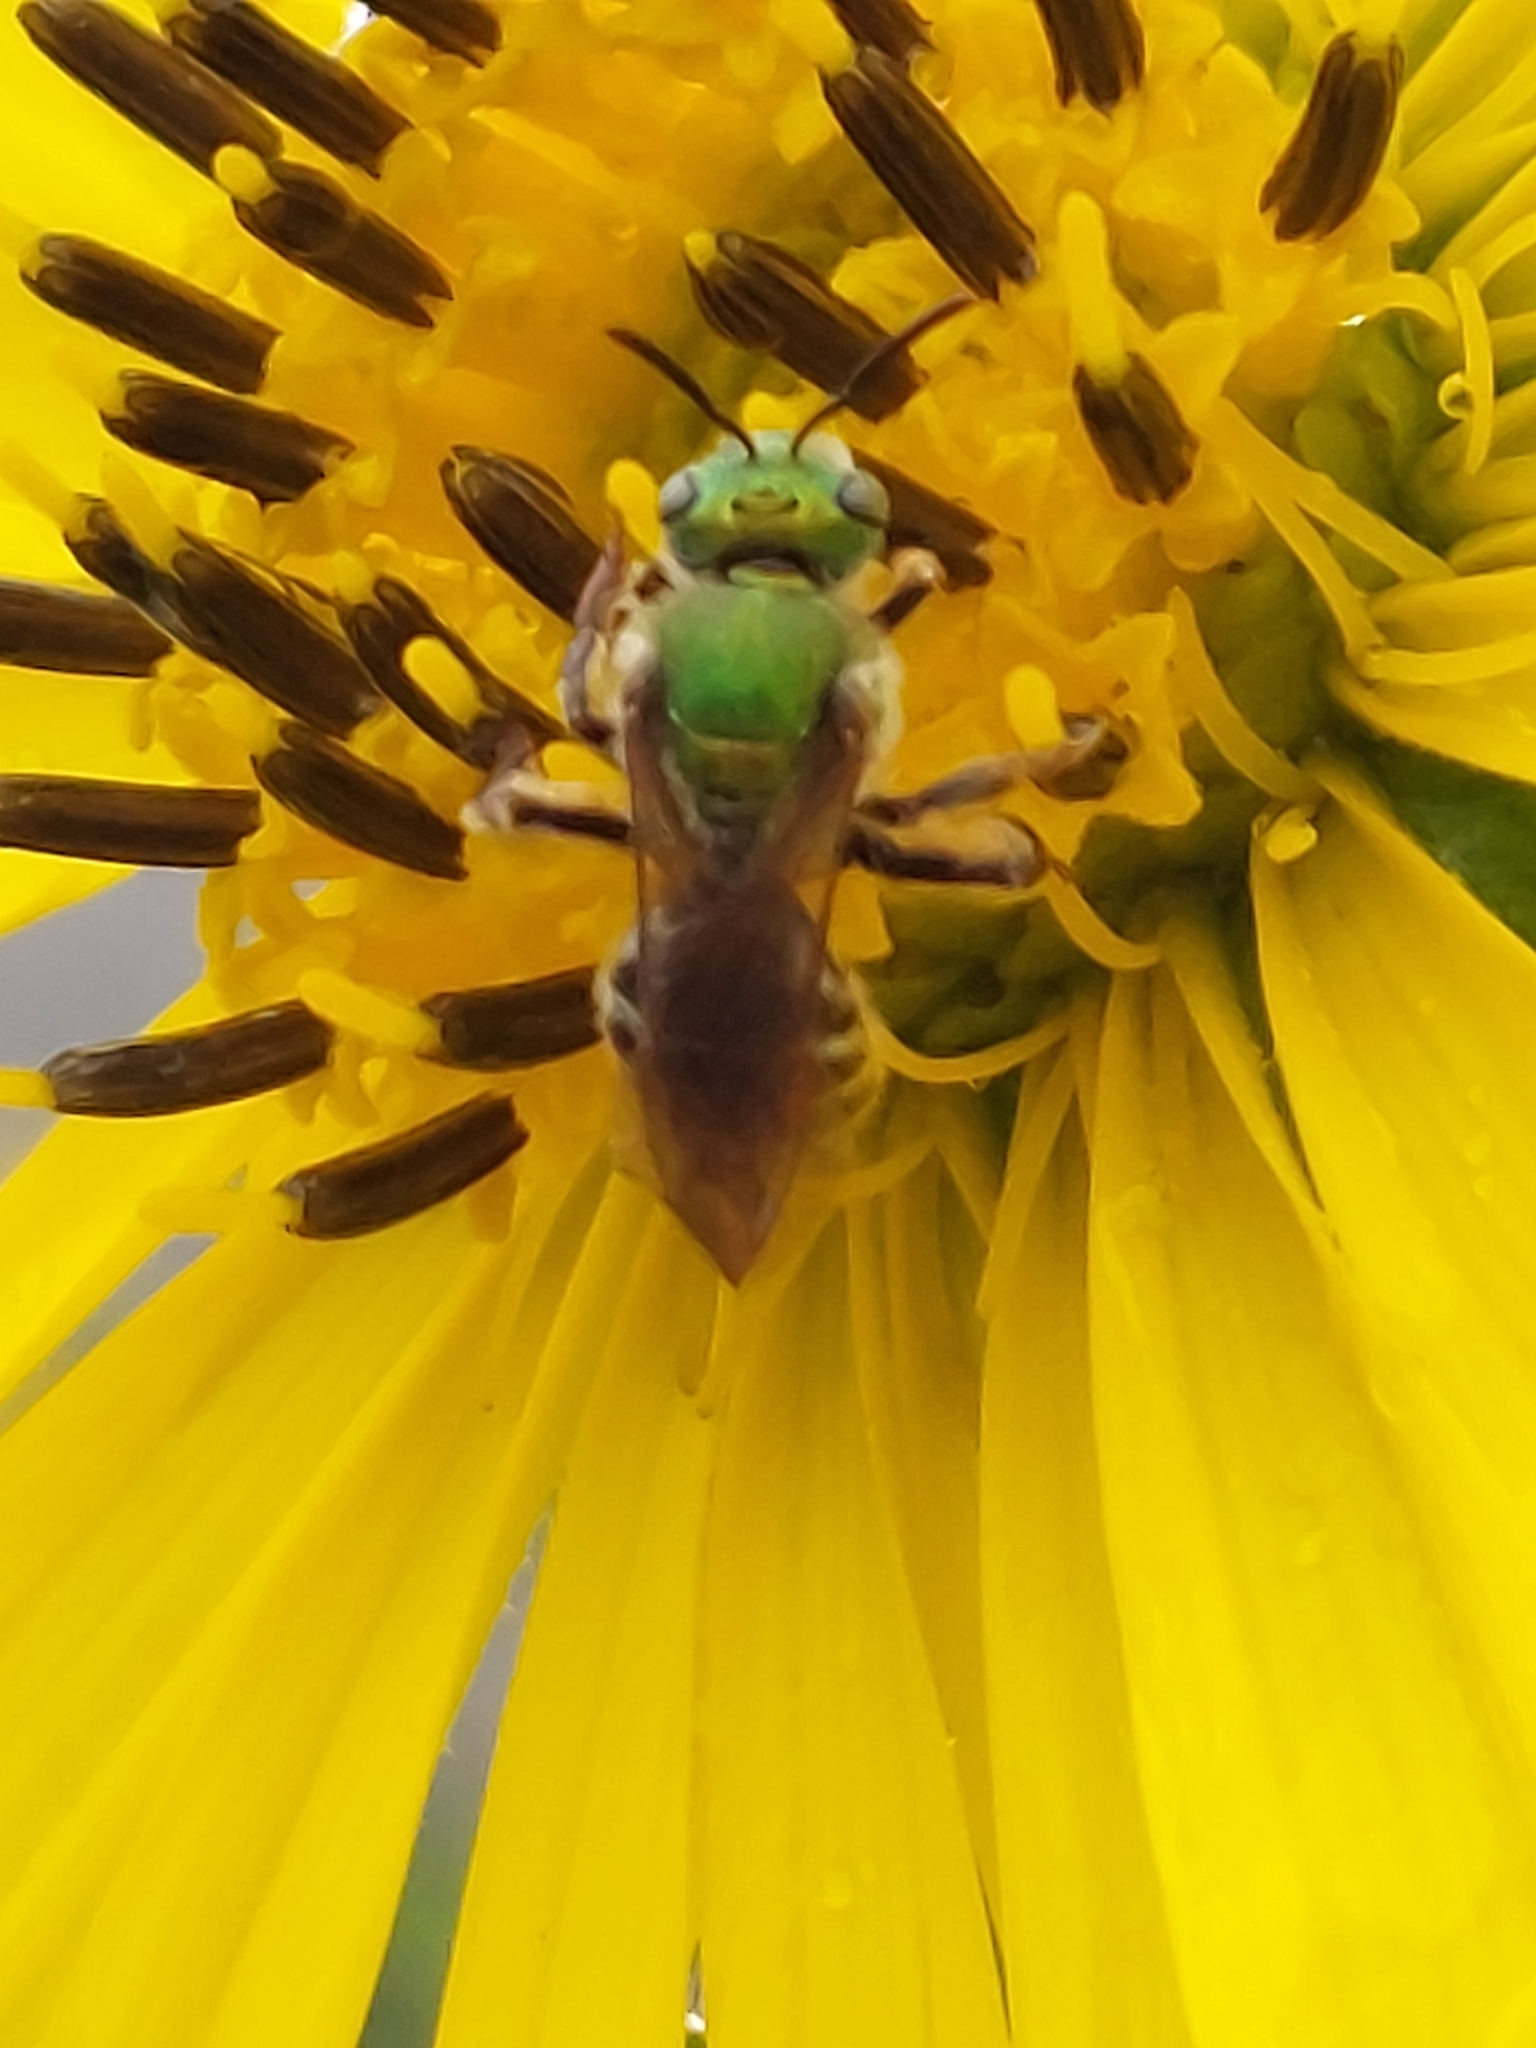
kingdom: Animalia
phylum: Arthropoda
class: Insecta
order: Hymenoptera
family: Halictidae
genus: Agapostemon
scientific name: Agapostemon virescens
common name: Bicolored striped sweat bee
